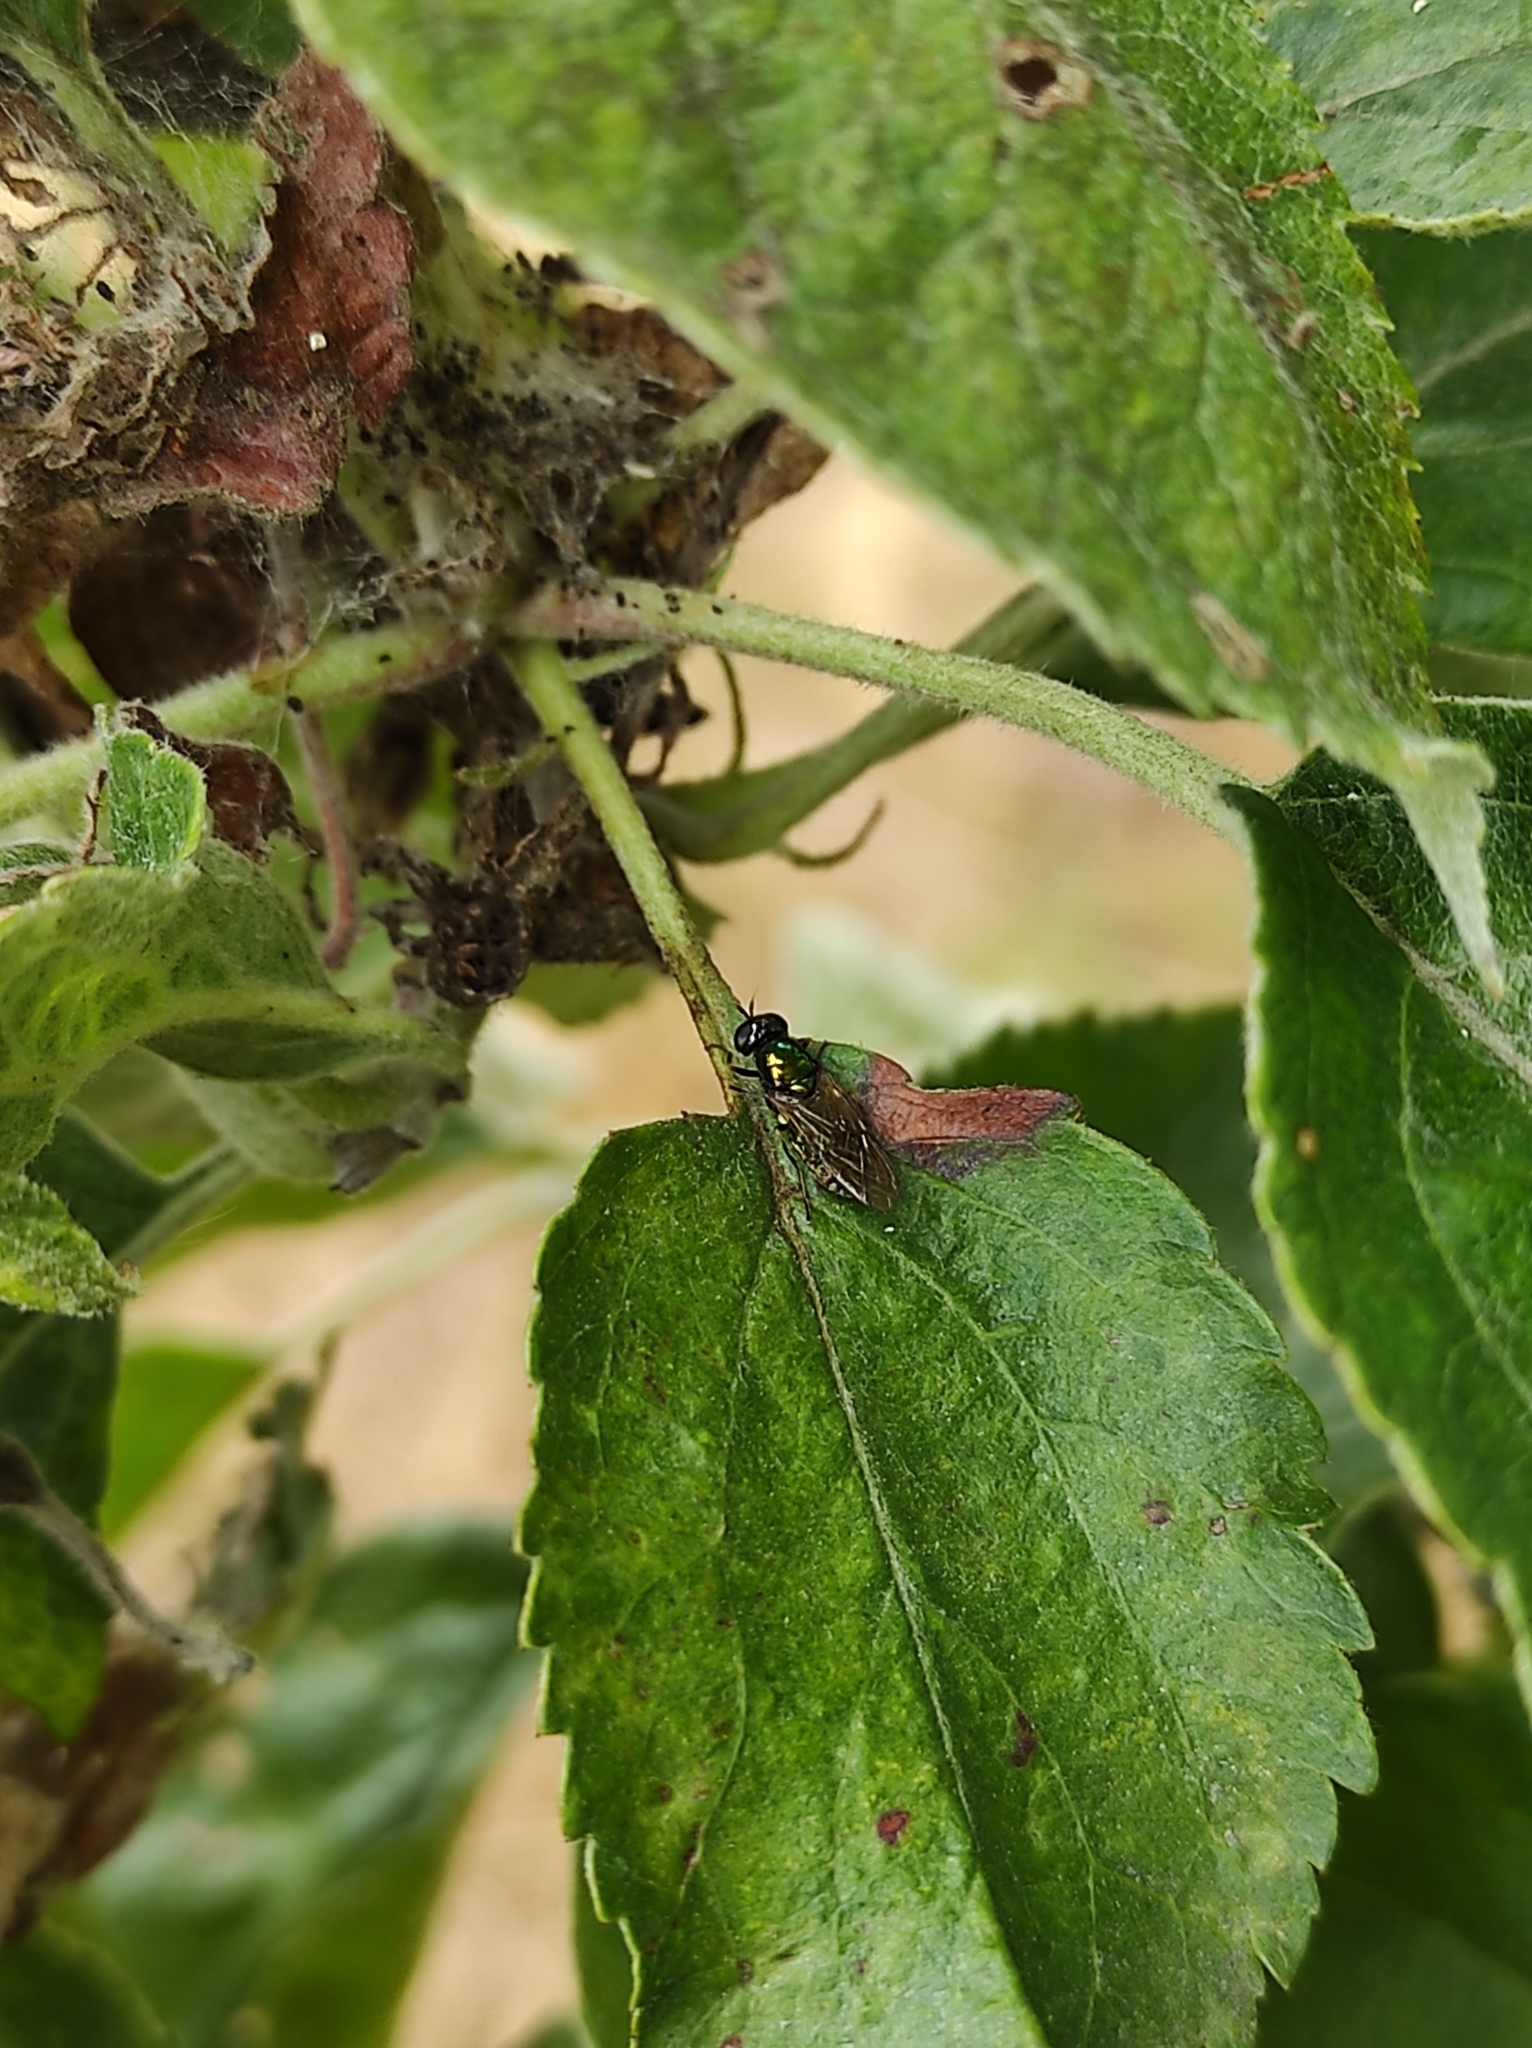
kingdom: Animalia
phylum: Arthropoda
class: Insecta
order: Diptera
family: Stratiomyidae
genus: Chloromyia
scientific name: Chloromyia formosa
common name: Soldier fly
